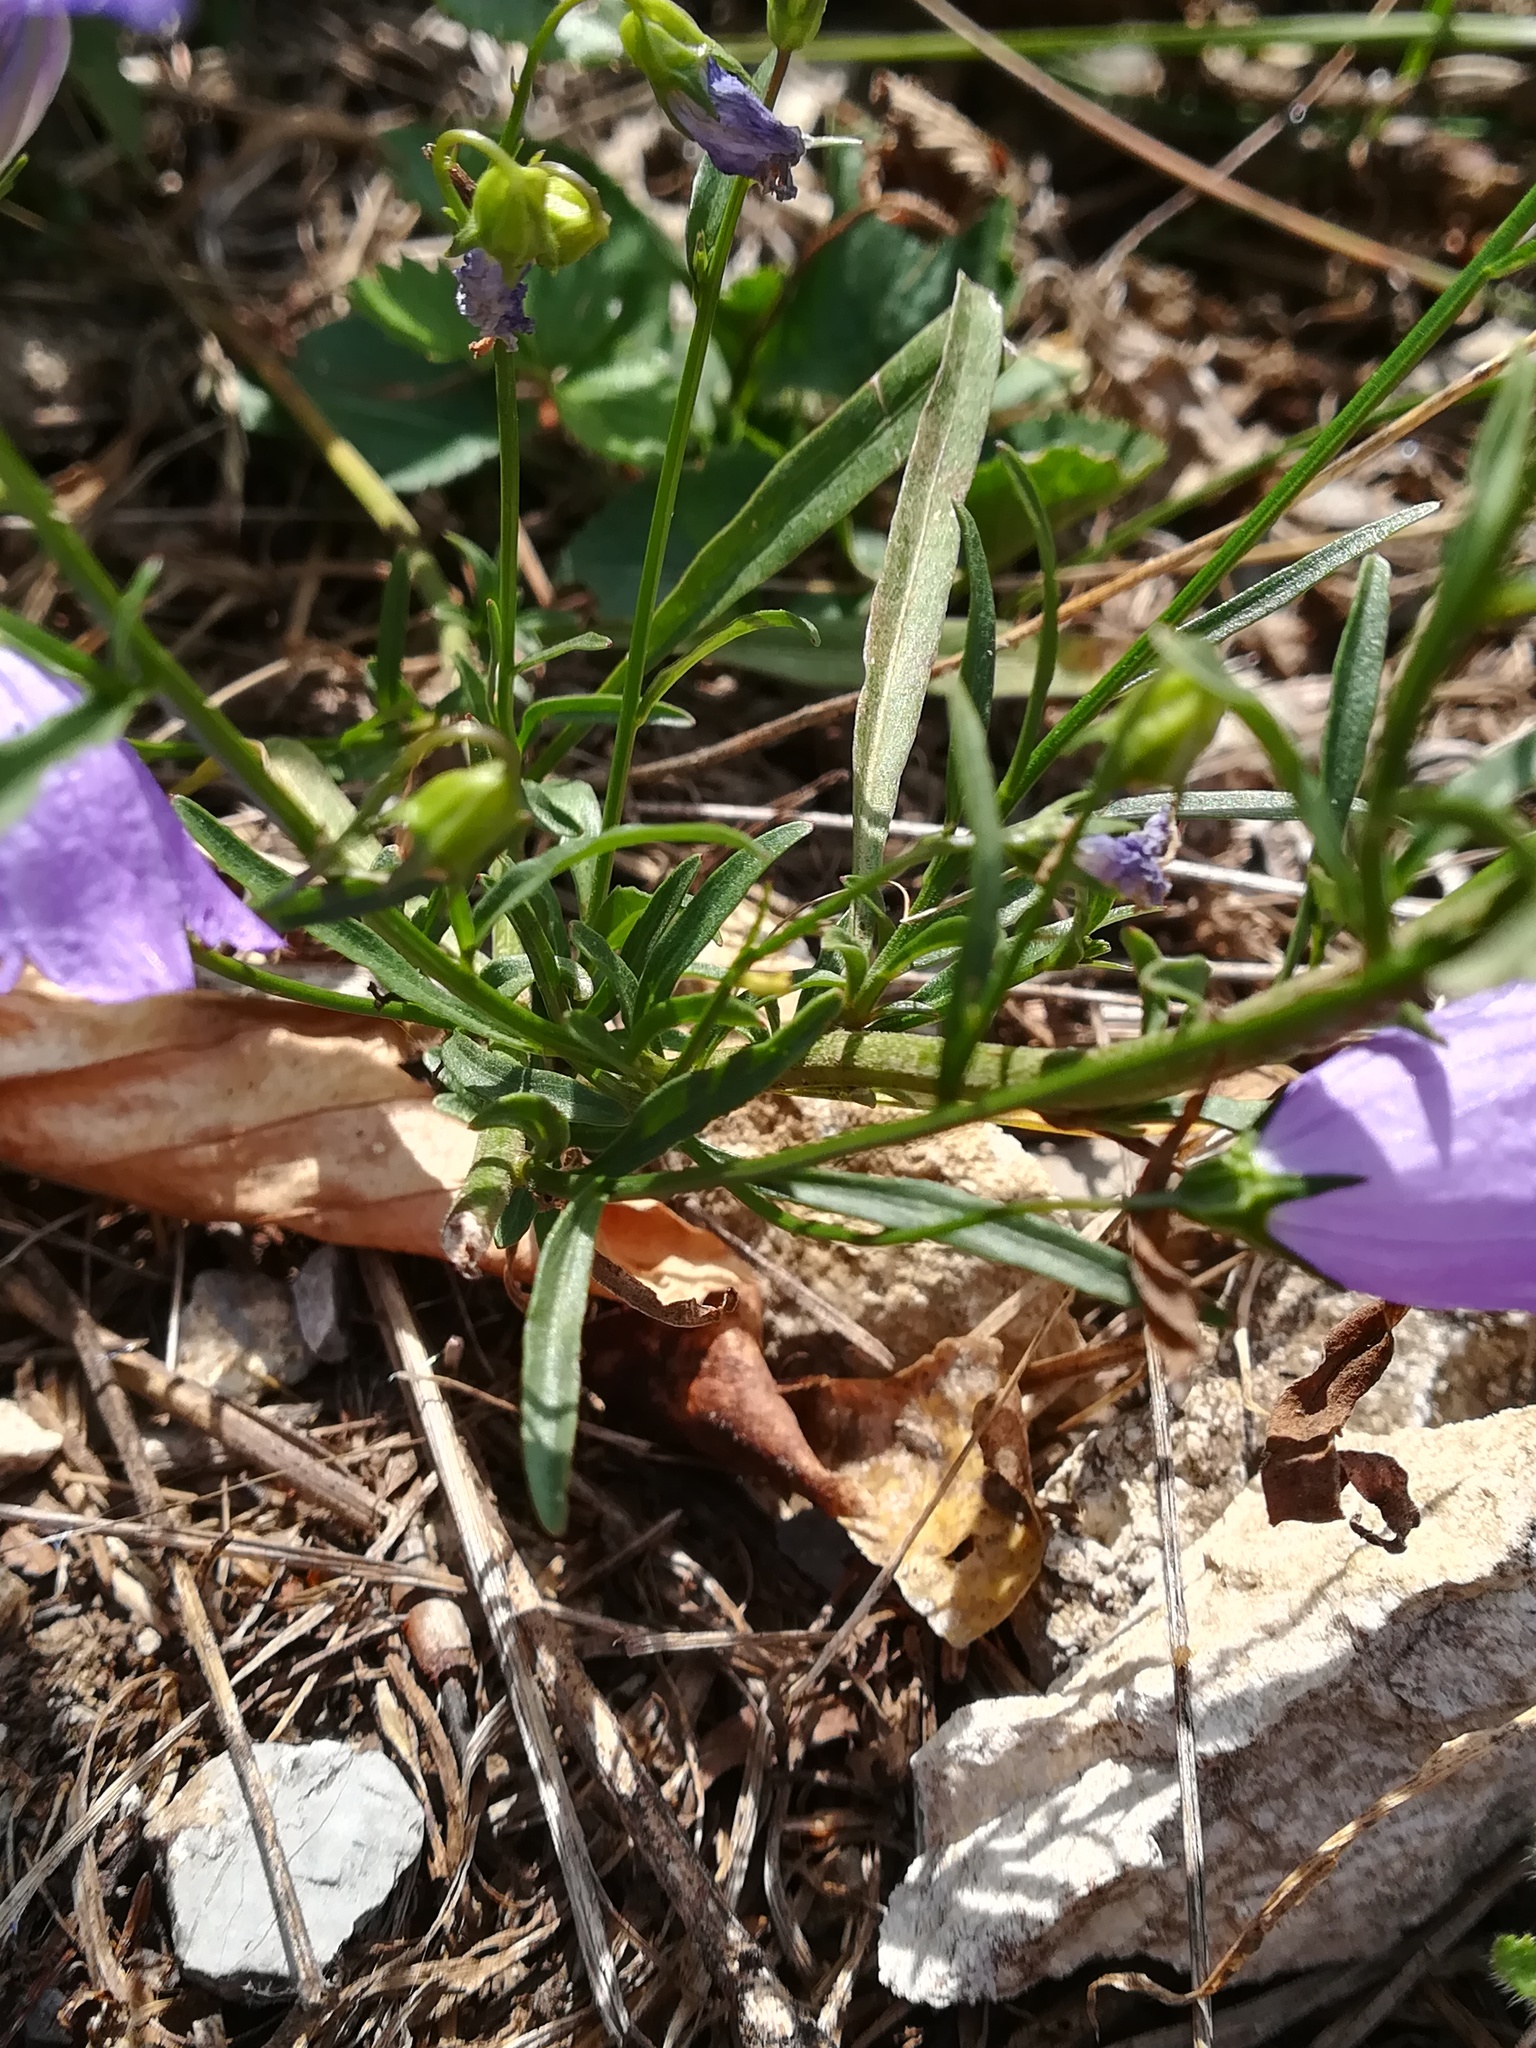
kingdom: Plantae
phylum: Tracheophyta
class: Magnoliopsida
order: Asterales
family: Campanulaceae
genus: Campanula
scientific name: Campanula rotundifolia
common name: Harebell
